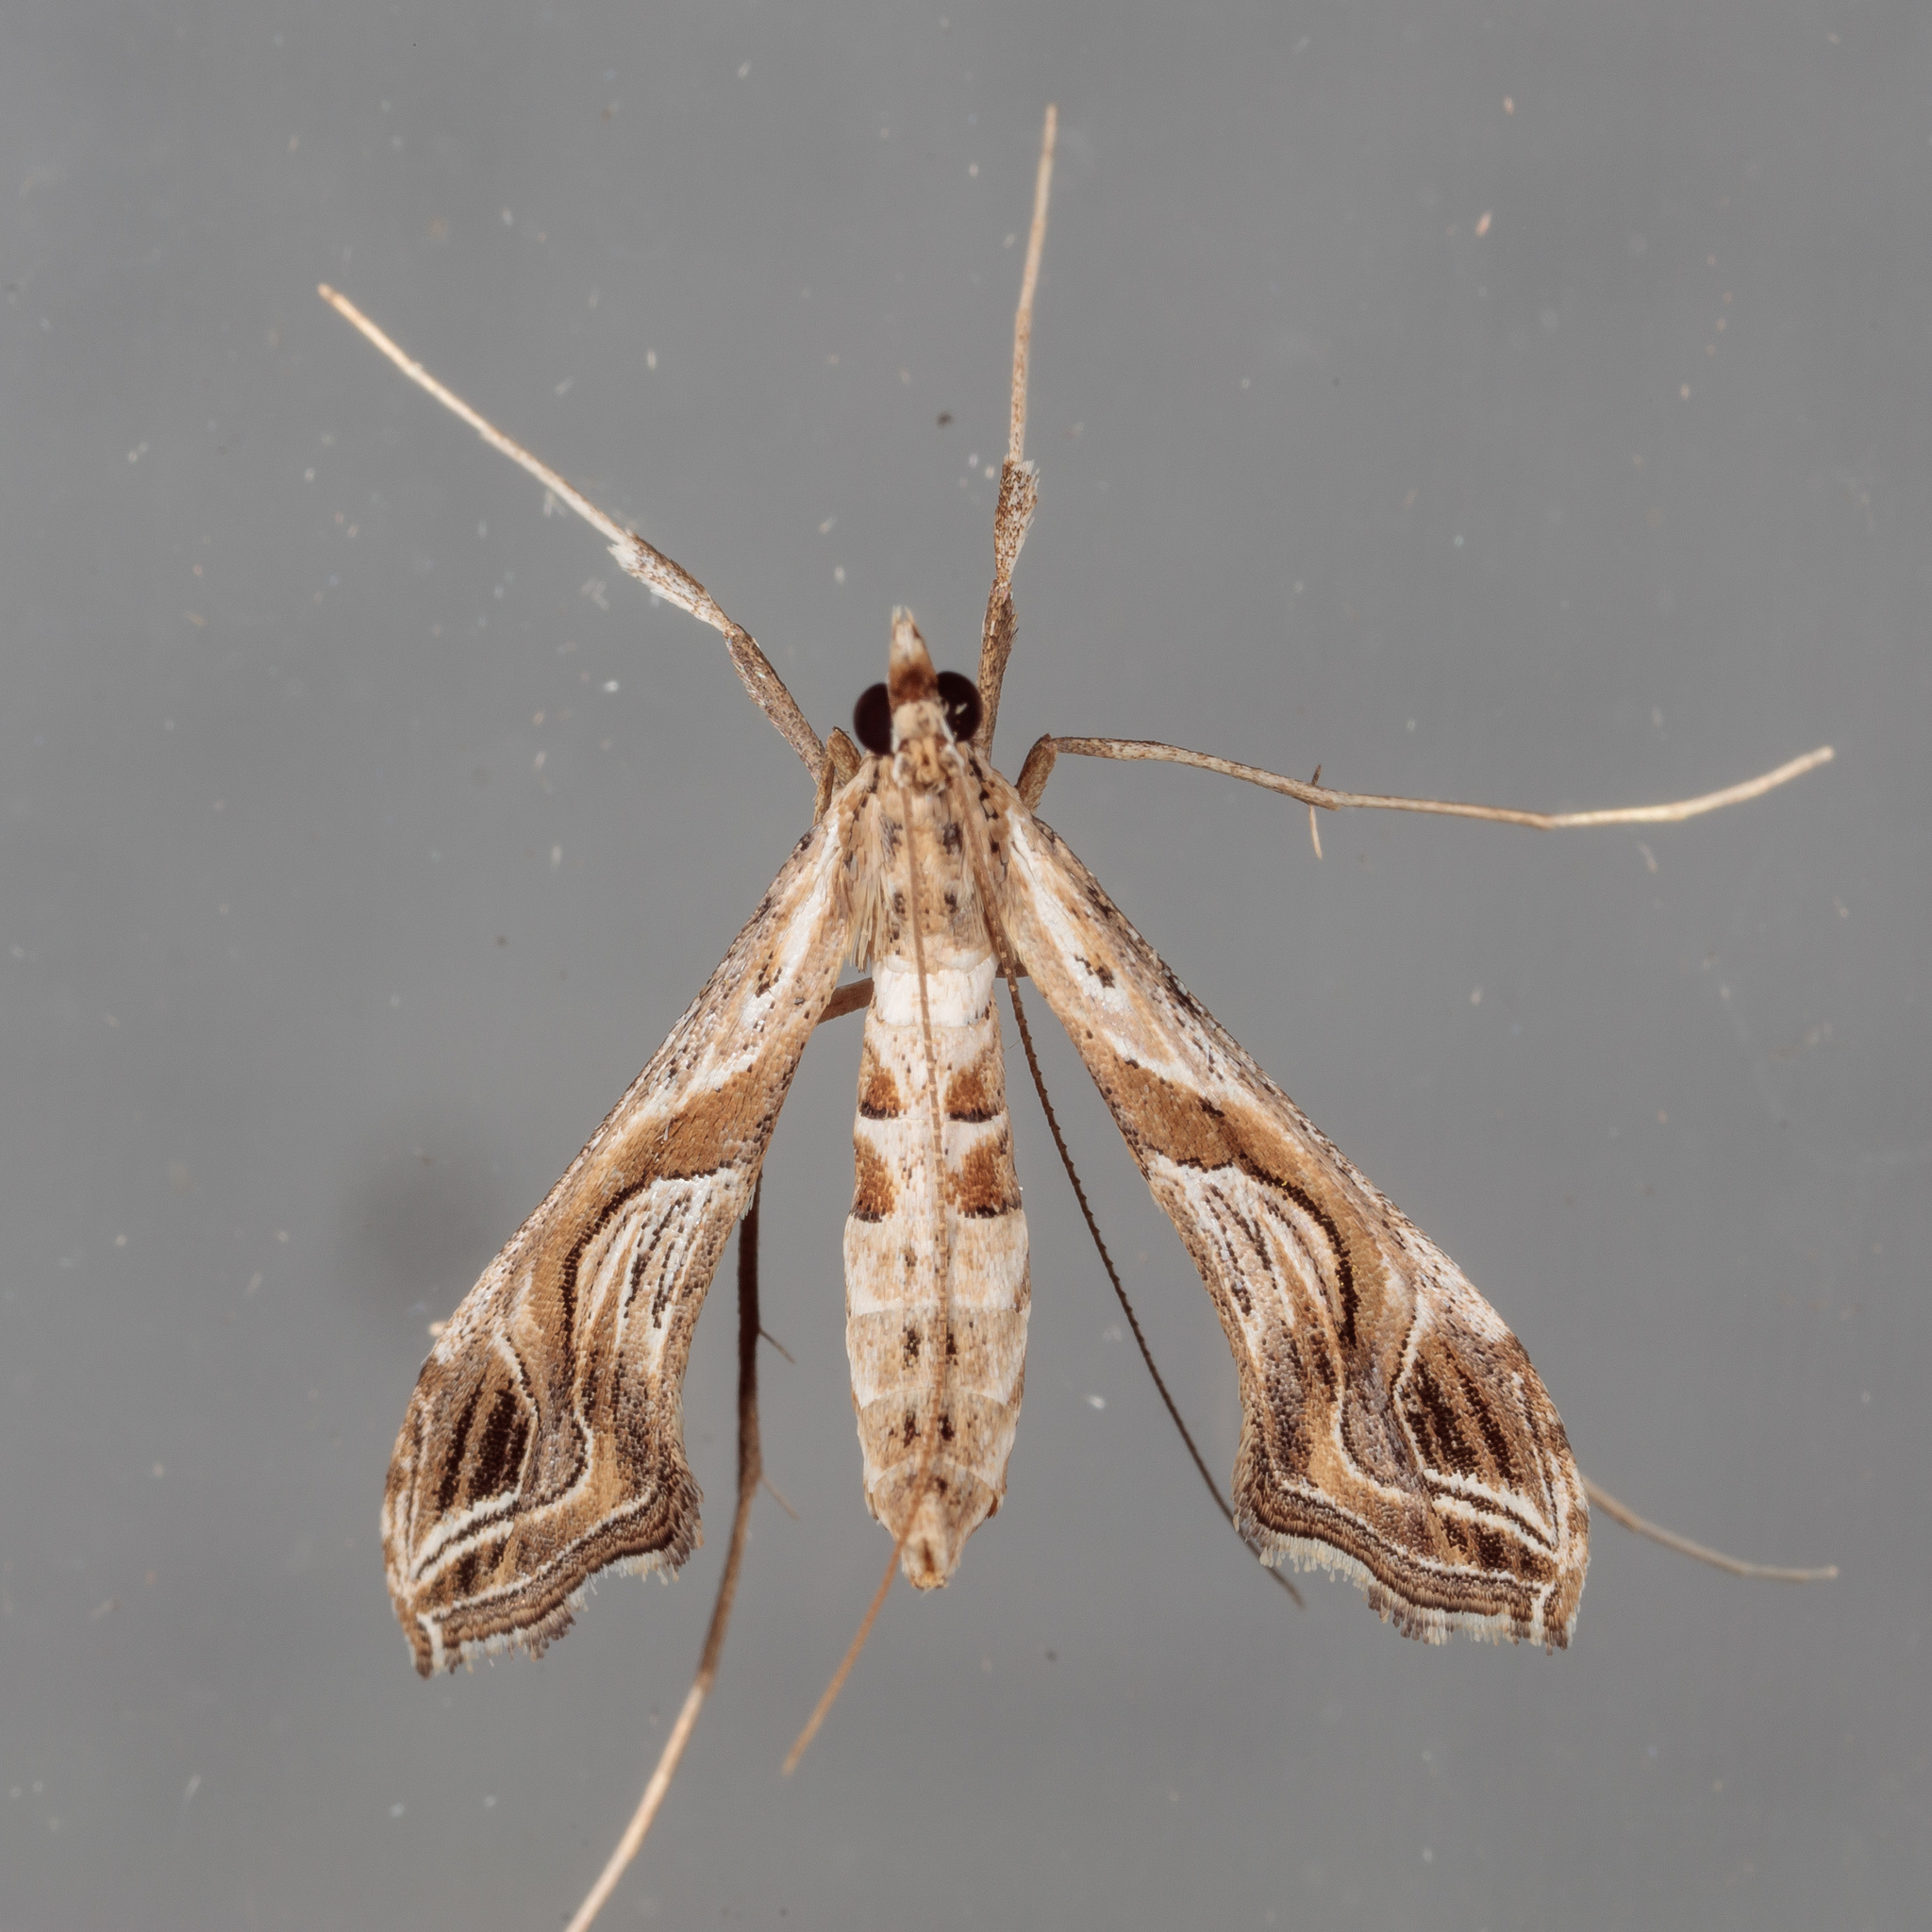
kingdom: Animalia
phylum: Arthropoda
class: Insecta
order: Lepidoptera
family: Crambidae
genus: Lineodes
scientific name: Lineodes integra
